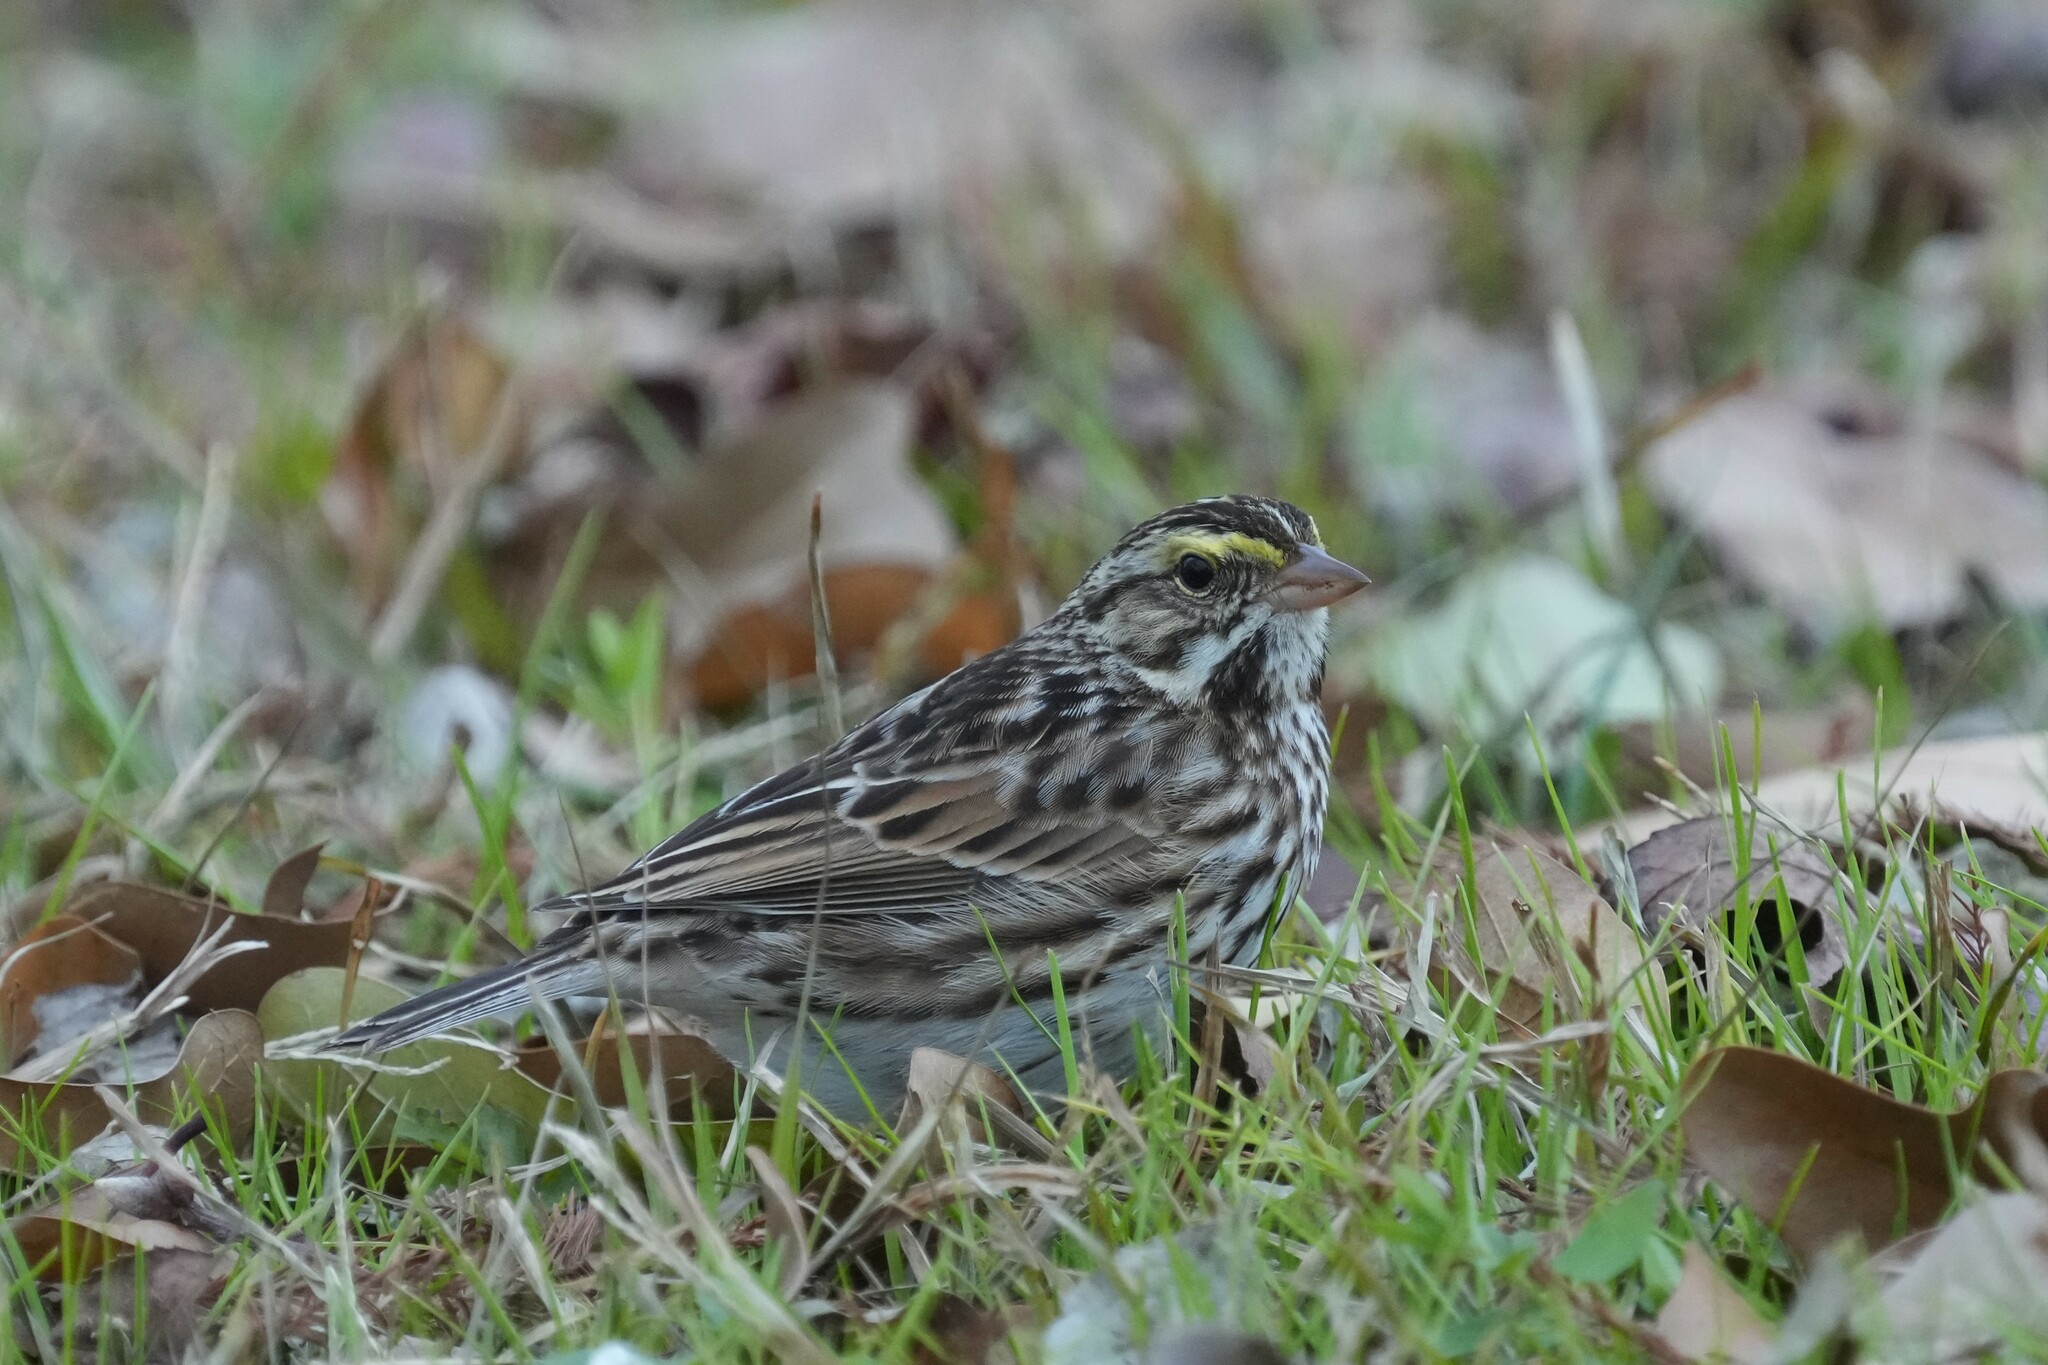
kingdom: Animalia
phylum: Chordata
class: Aves
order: Passeriformes
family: Passerellidae
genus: Passerculus
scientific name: Passerculus sandwichensis
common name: Savannah sparrow
